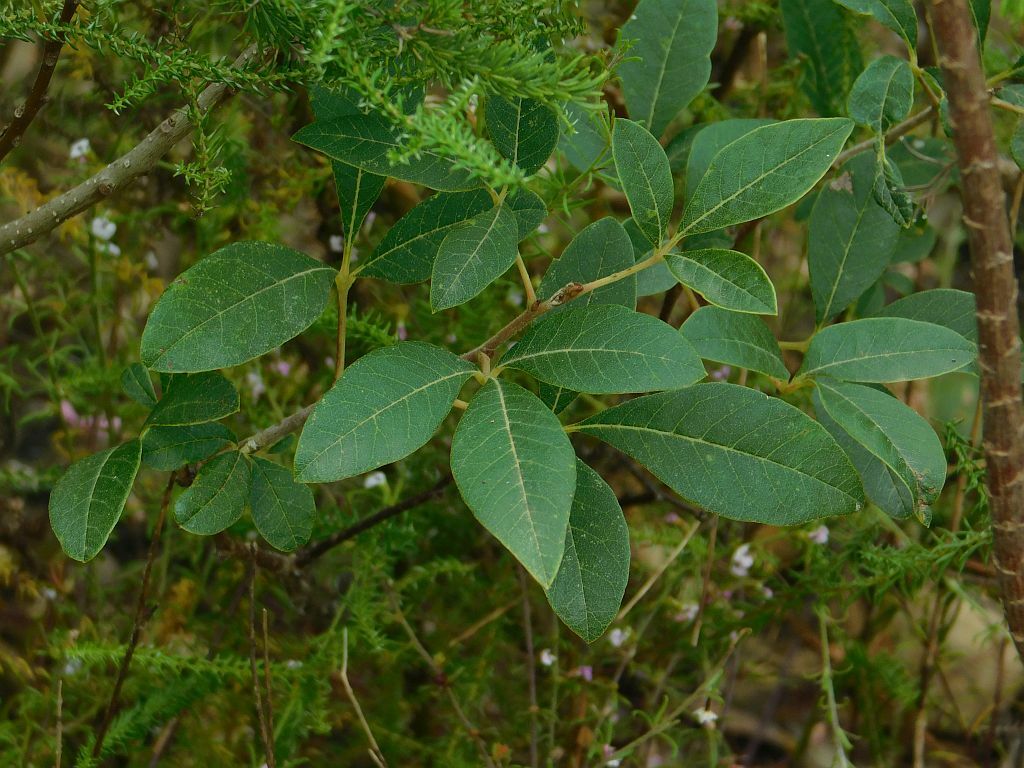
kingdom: Plantae
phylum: Tracheophyta
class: Magnoliopsida
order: Sapindales
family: Anacardiaceae
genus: Searsia
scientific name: Searsia tomentosa
